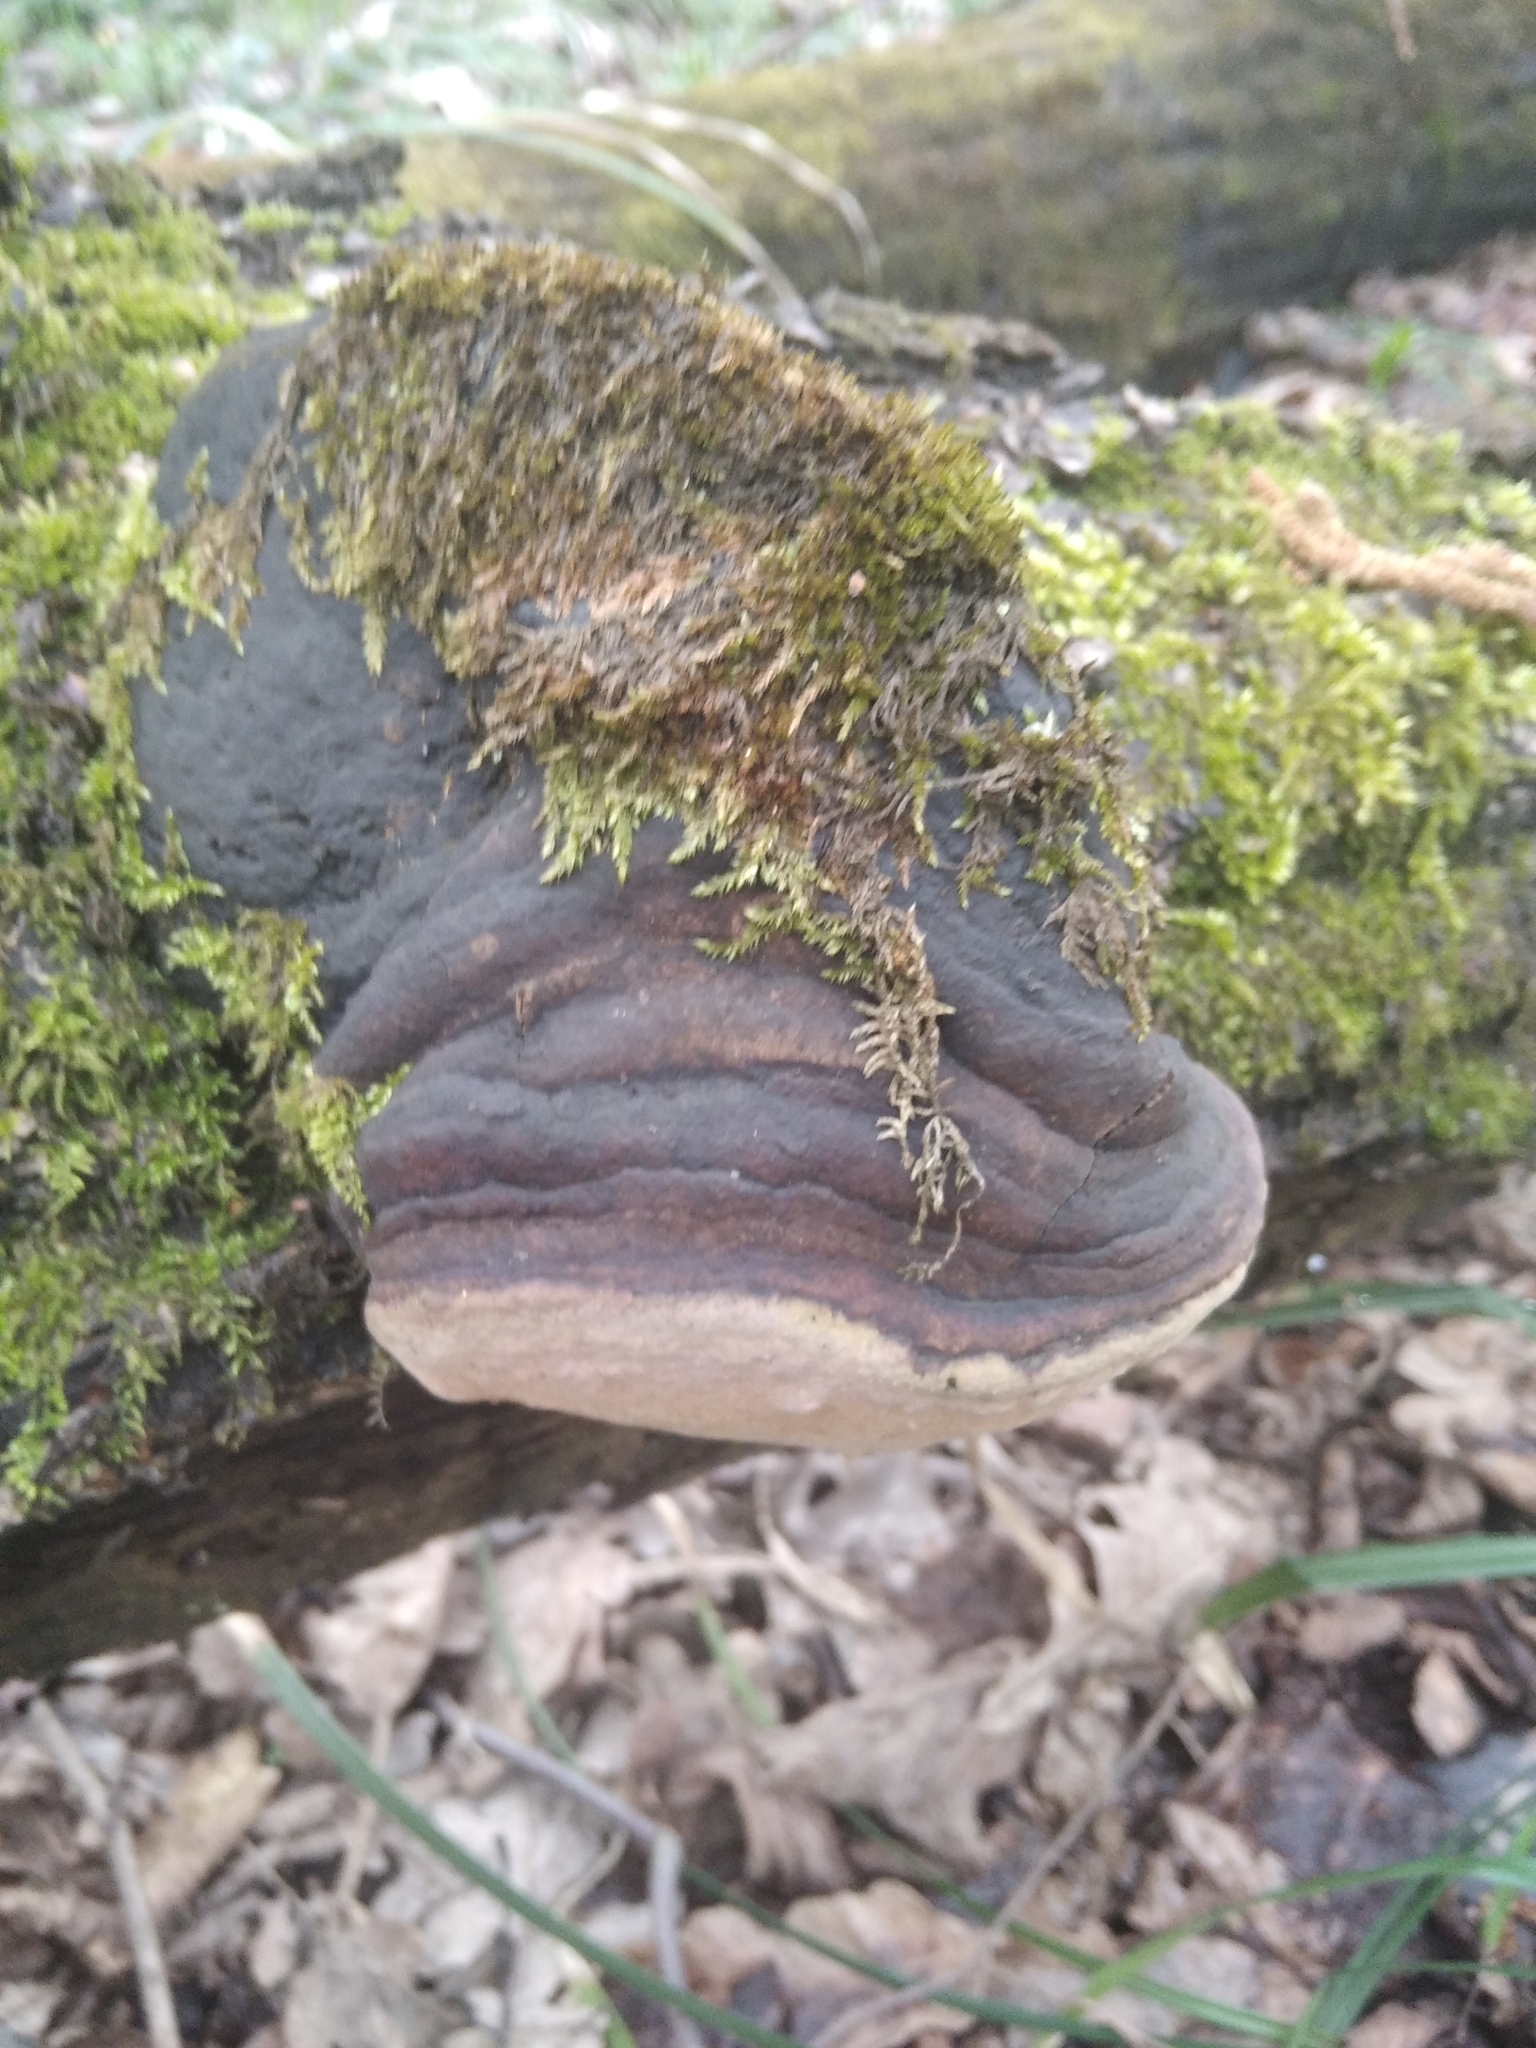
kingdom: Fungi
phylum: Basidiomycota
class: Agaricomycetes
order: Hymenochaetales
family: Hymenochaetaceae
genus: Phellinus
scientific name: Phellinus igniarius
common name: Willow bracket
